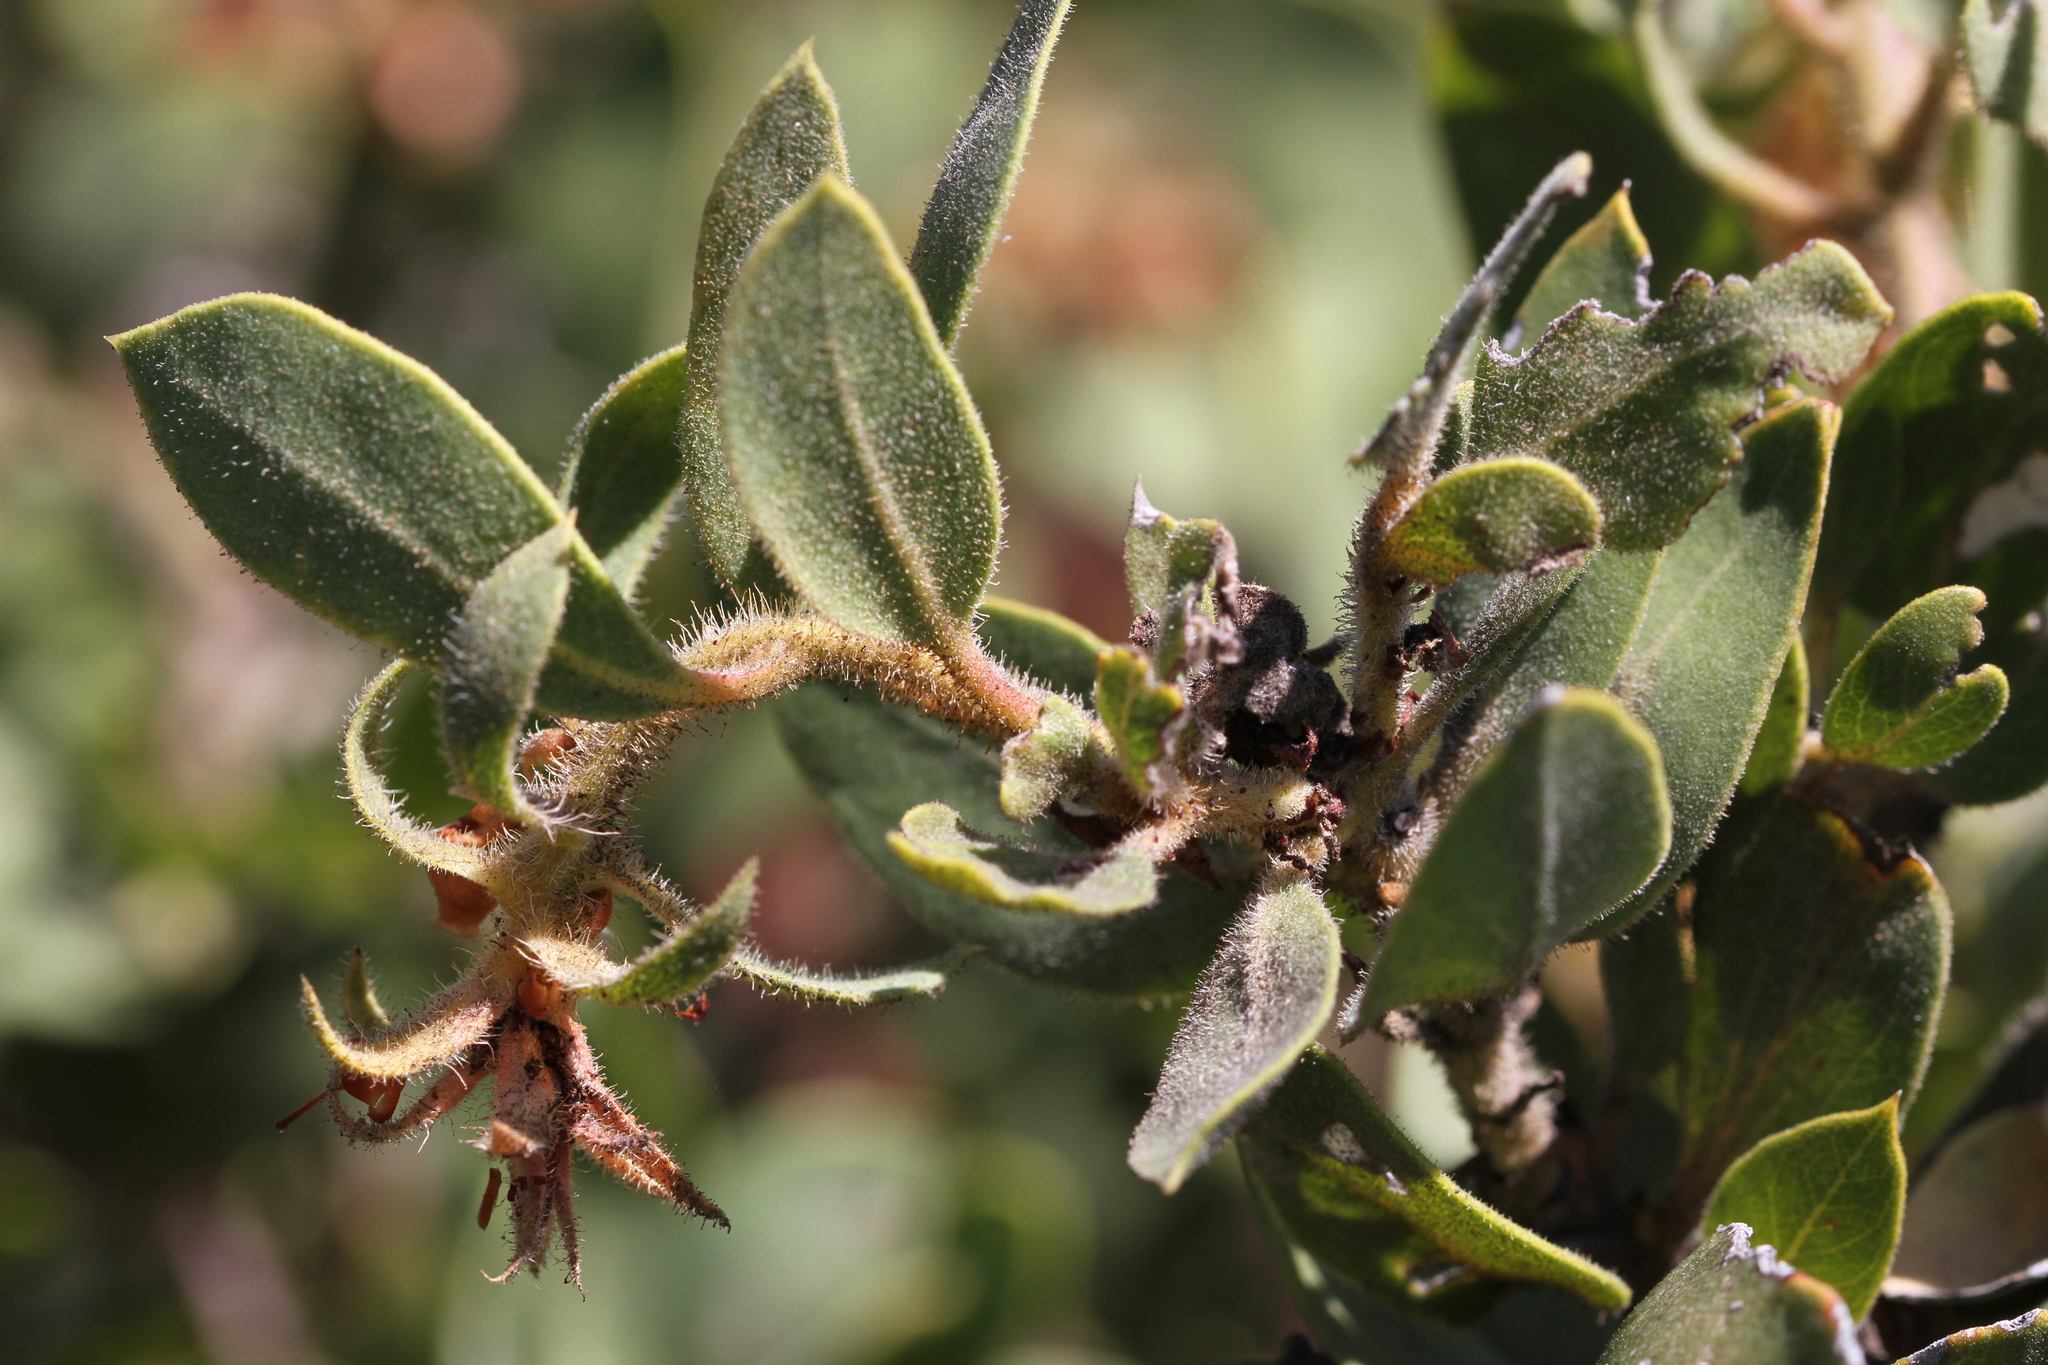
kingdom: Plantae
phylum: Tracheophyta
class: Magnoliopsida
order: Ericales
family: Ericaceae
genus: Arctostaphylos
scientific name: Arctostaphylos glandulosa
